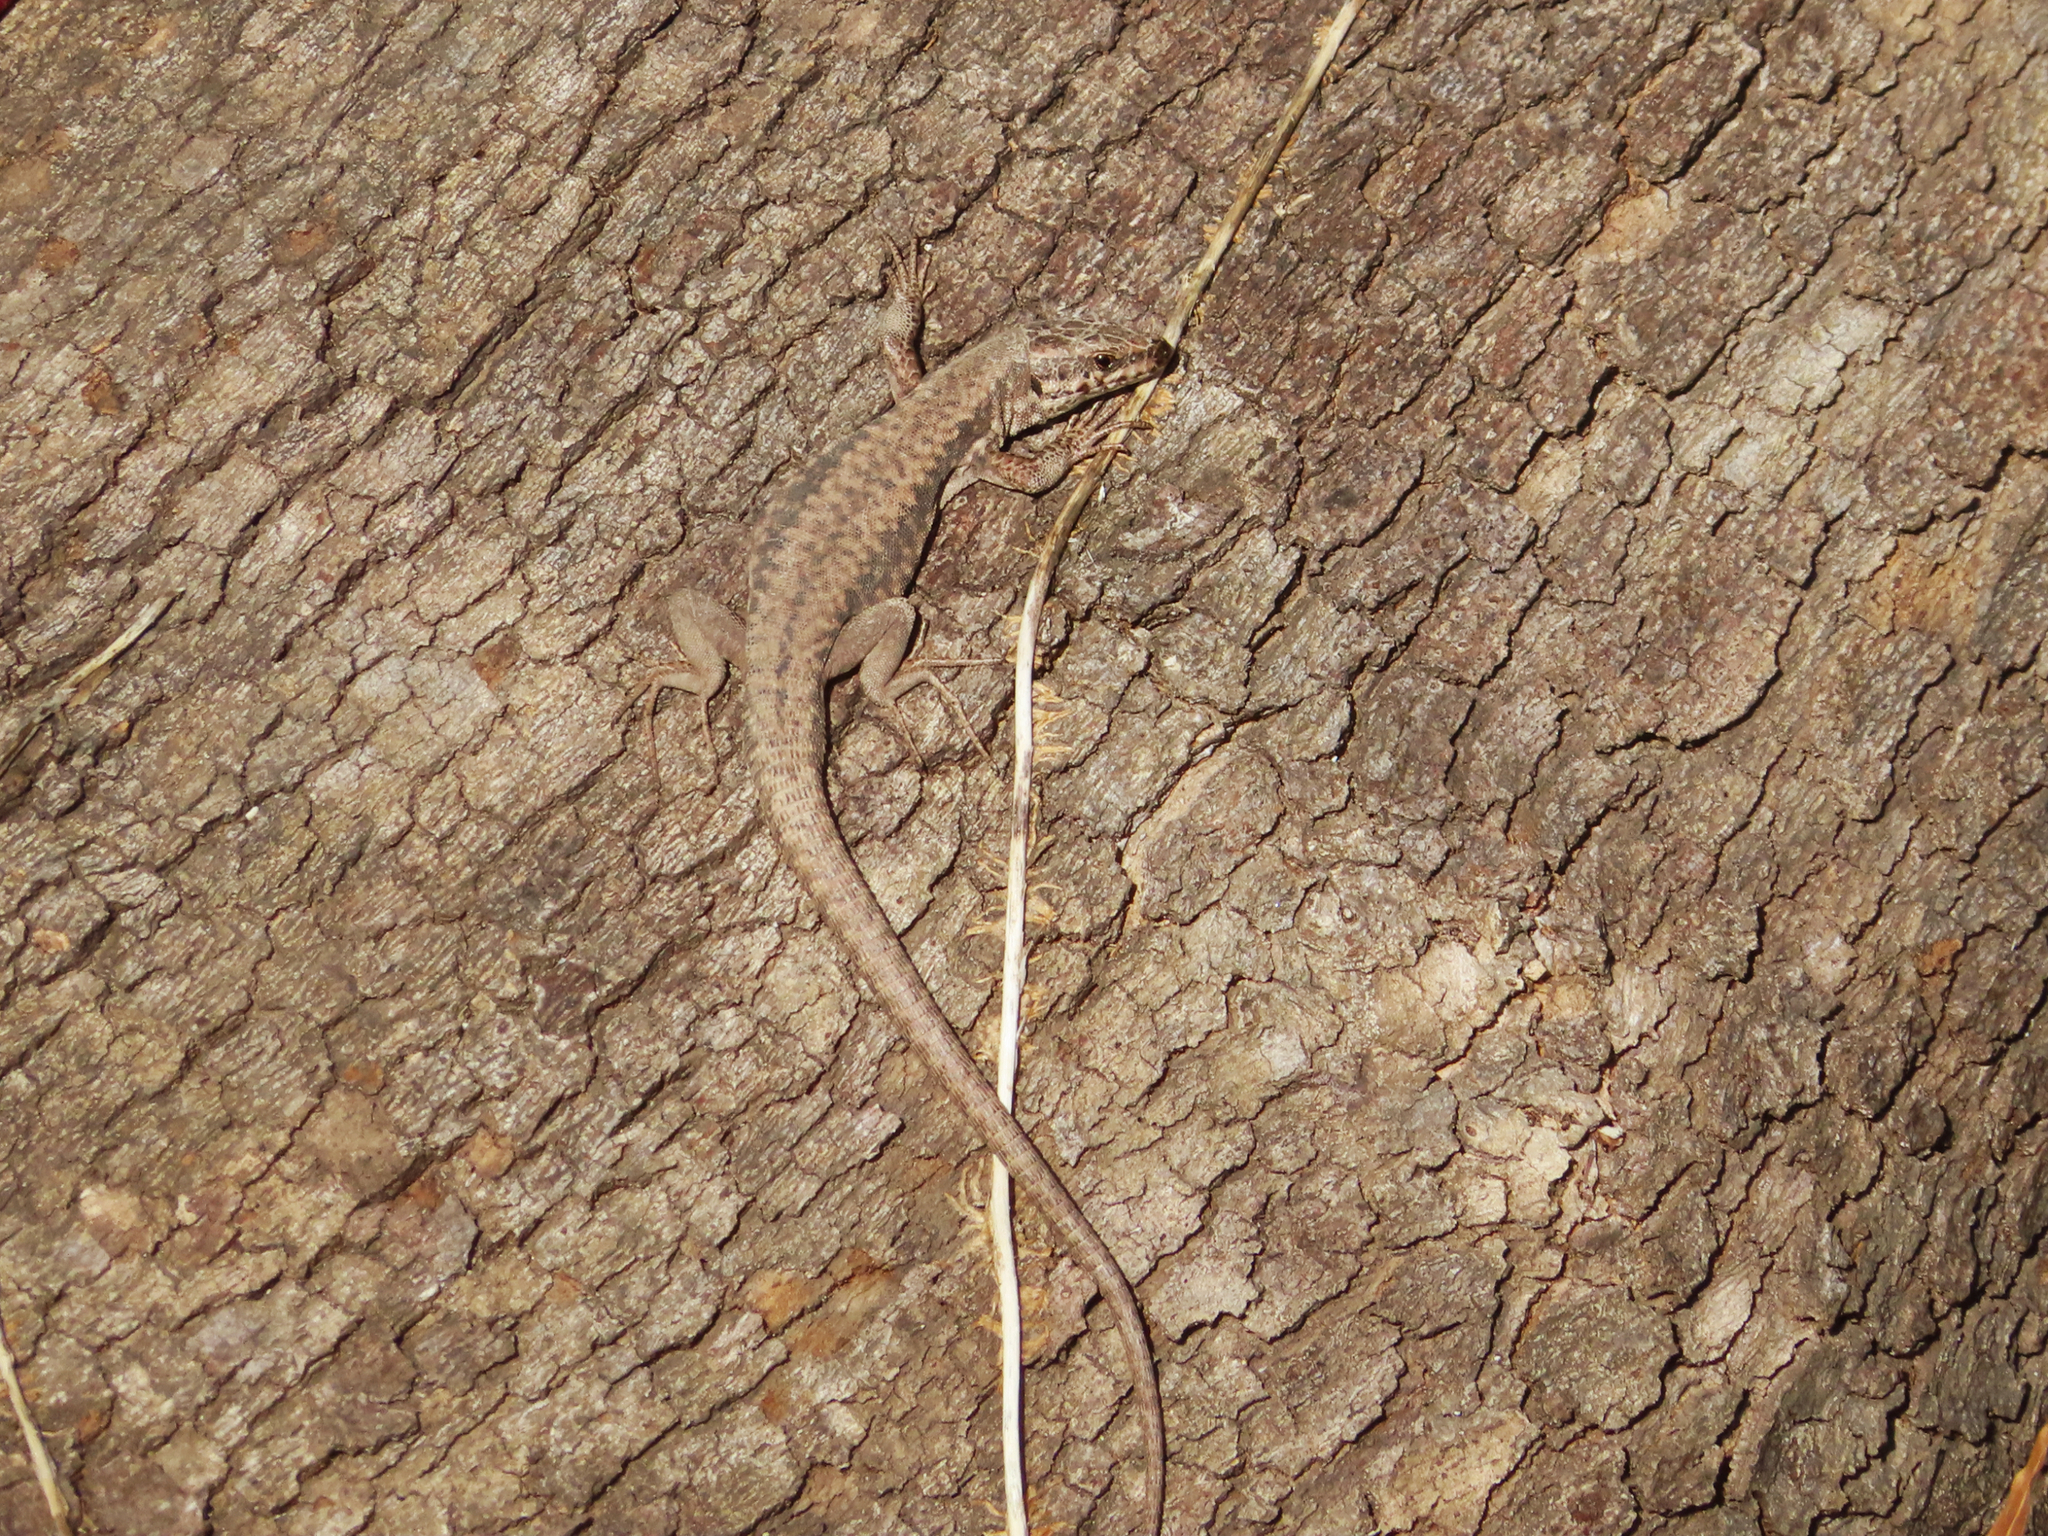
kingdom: Animalia
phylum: Chordata
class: Squamata
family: Lacertidae
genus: Podarcis
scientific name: Podarcis muralis
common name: Common wall lizard
